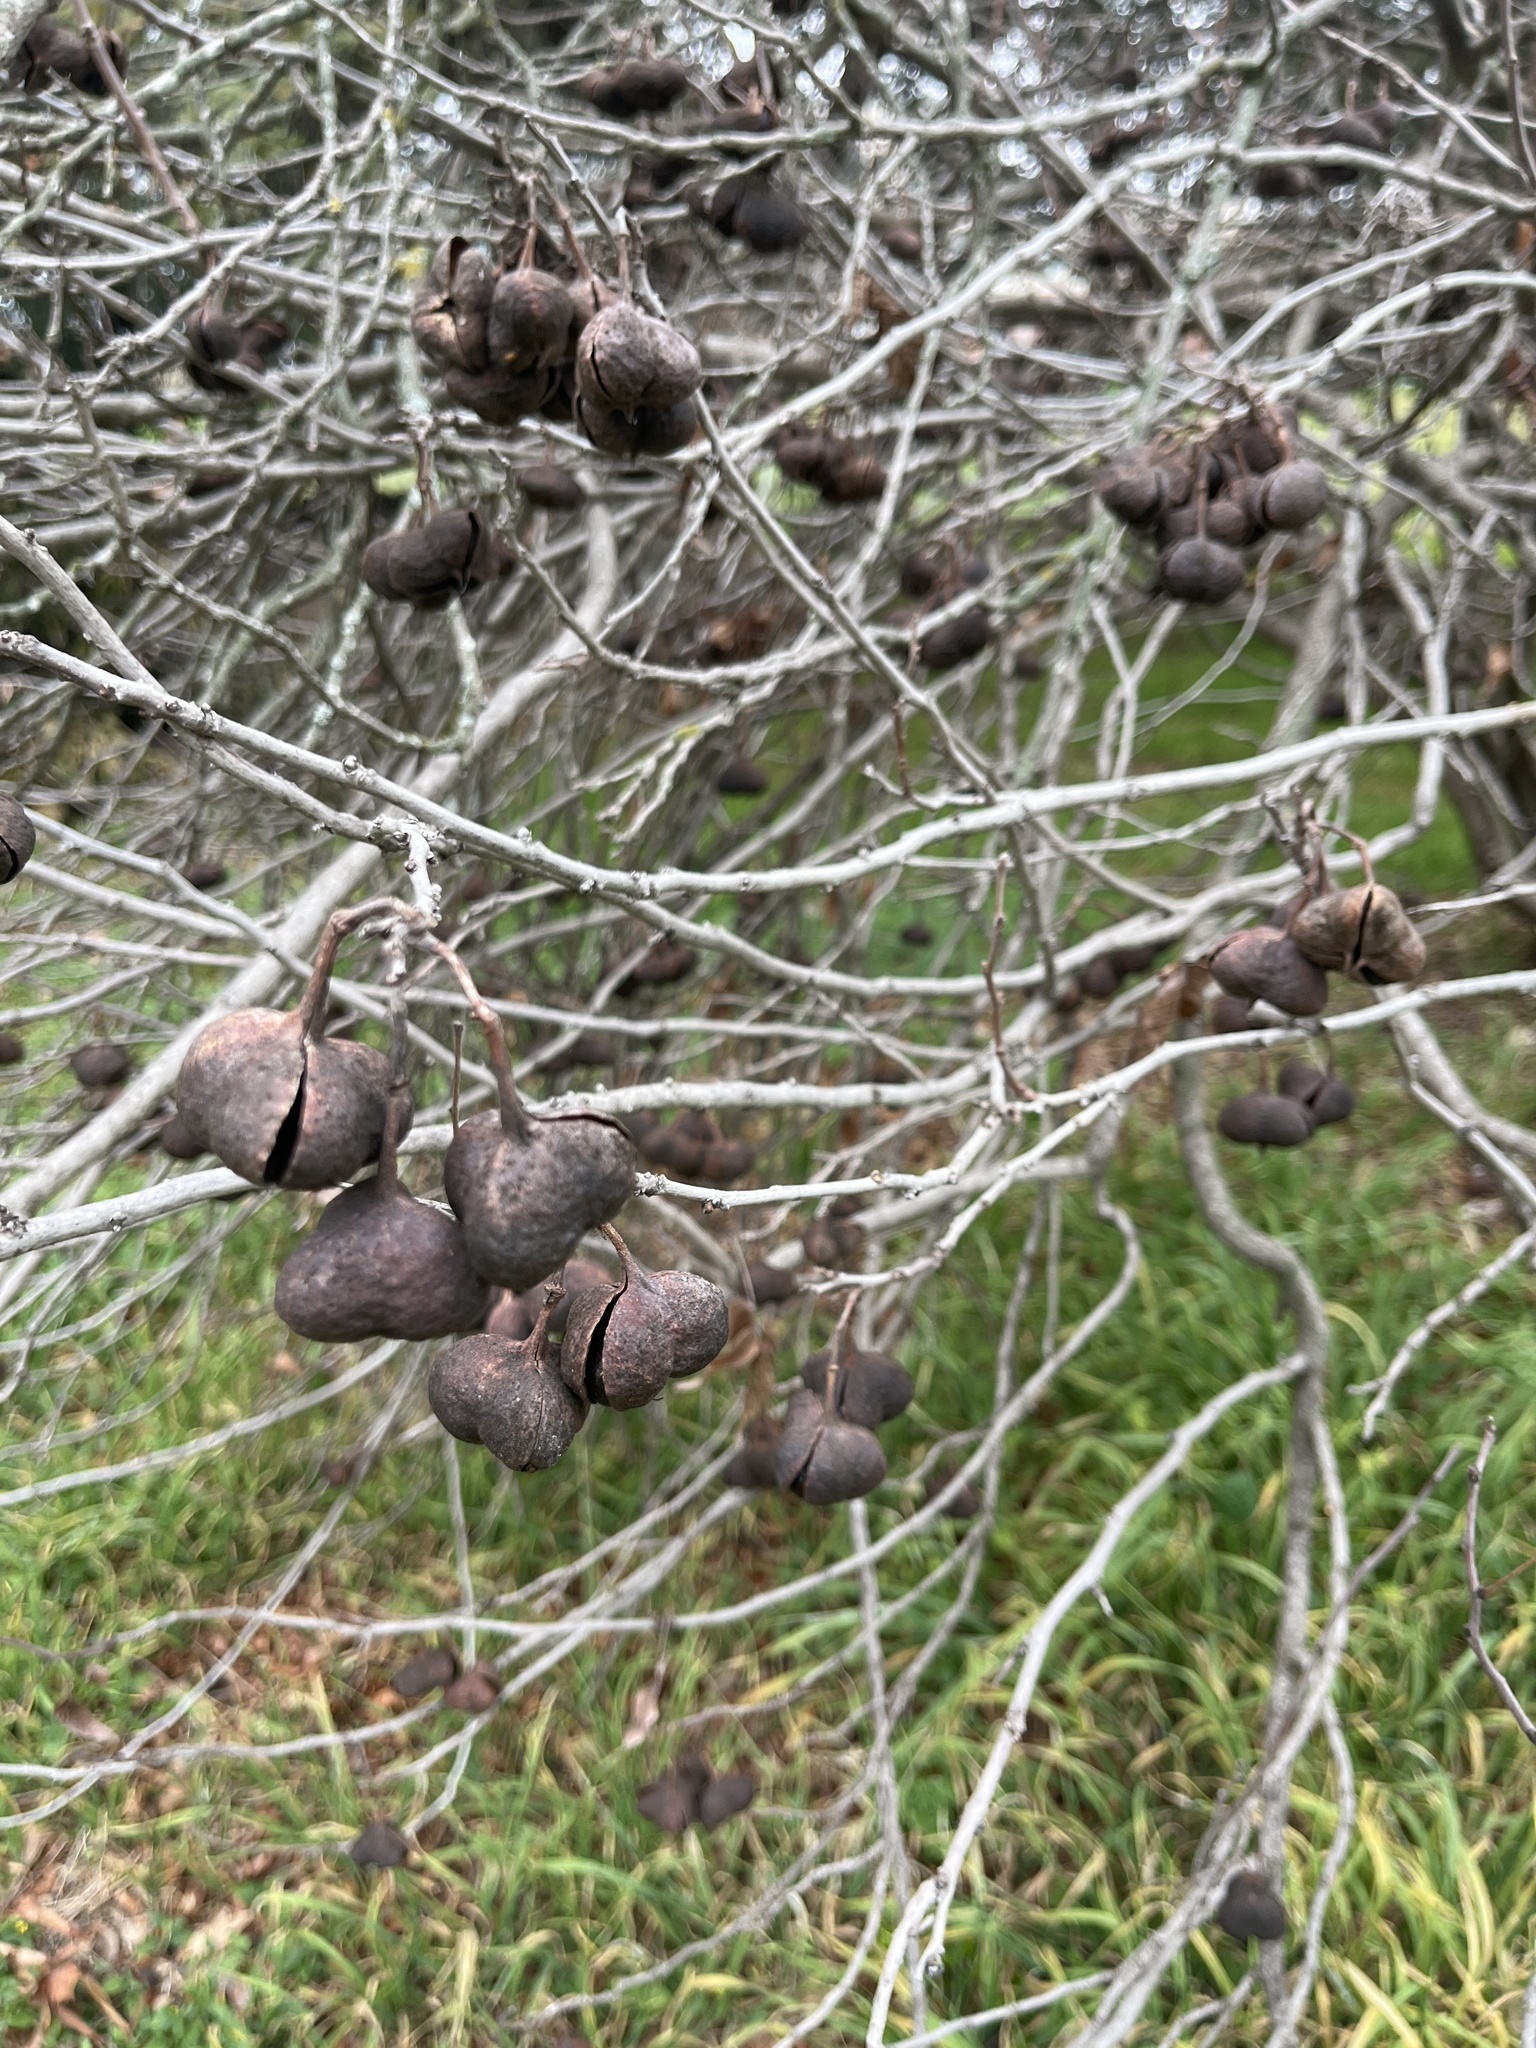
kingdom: Plantae
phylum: Tracheophyta
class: Magnoliopsida
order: Sapindales
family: Sapindaceae
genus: Ungnadia
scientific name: Ungnadia speciosa
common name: Texas-buckeye
